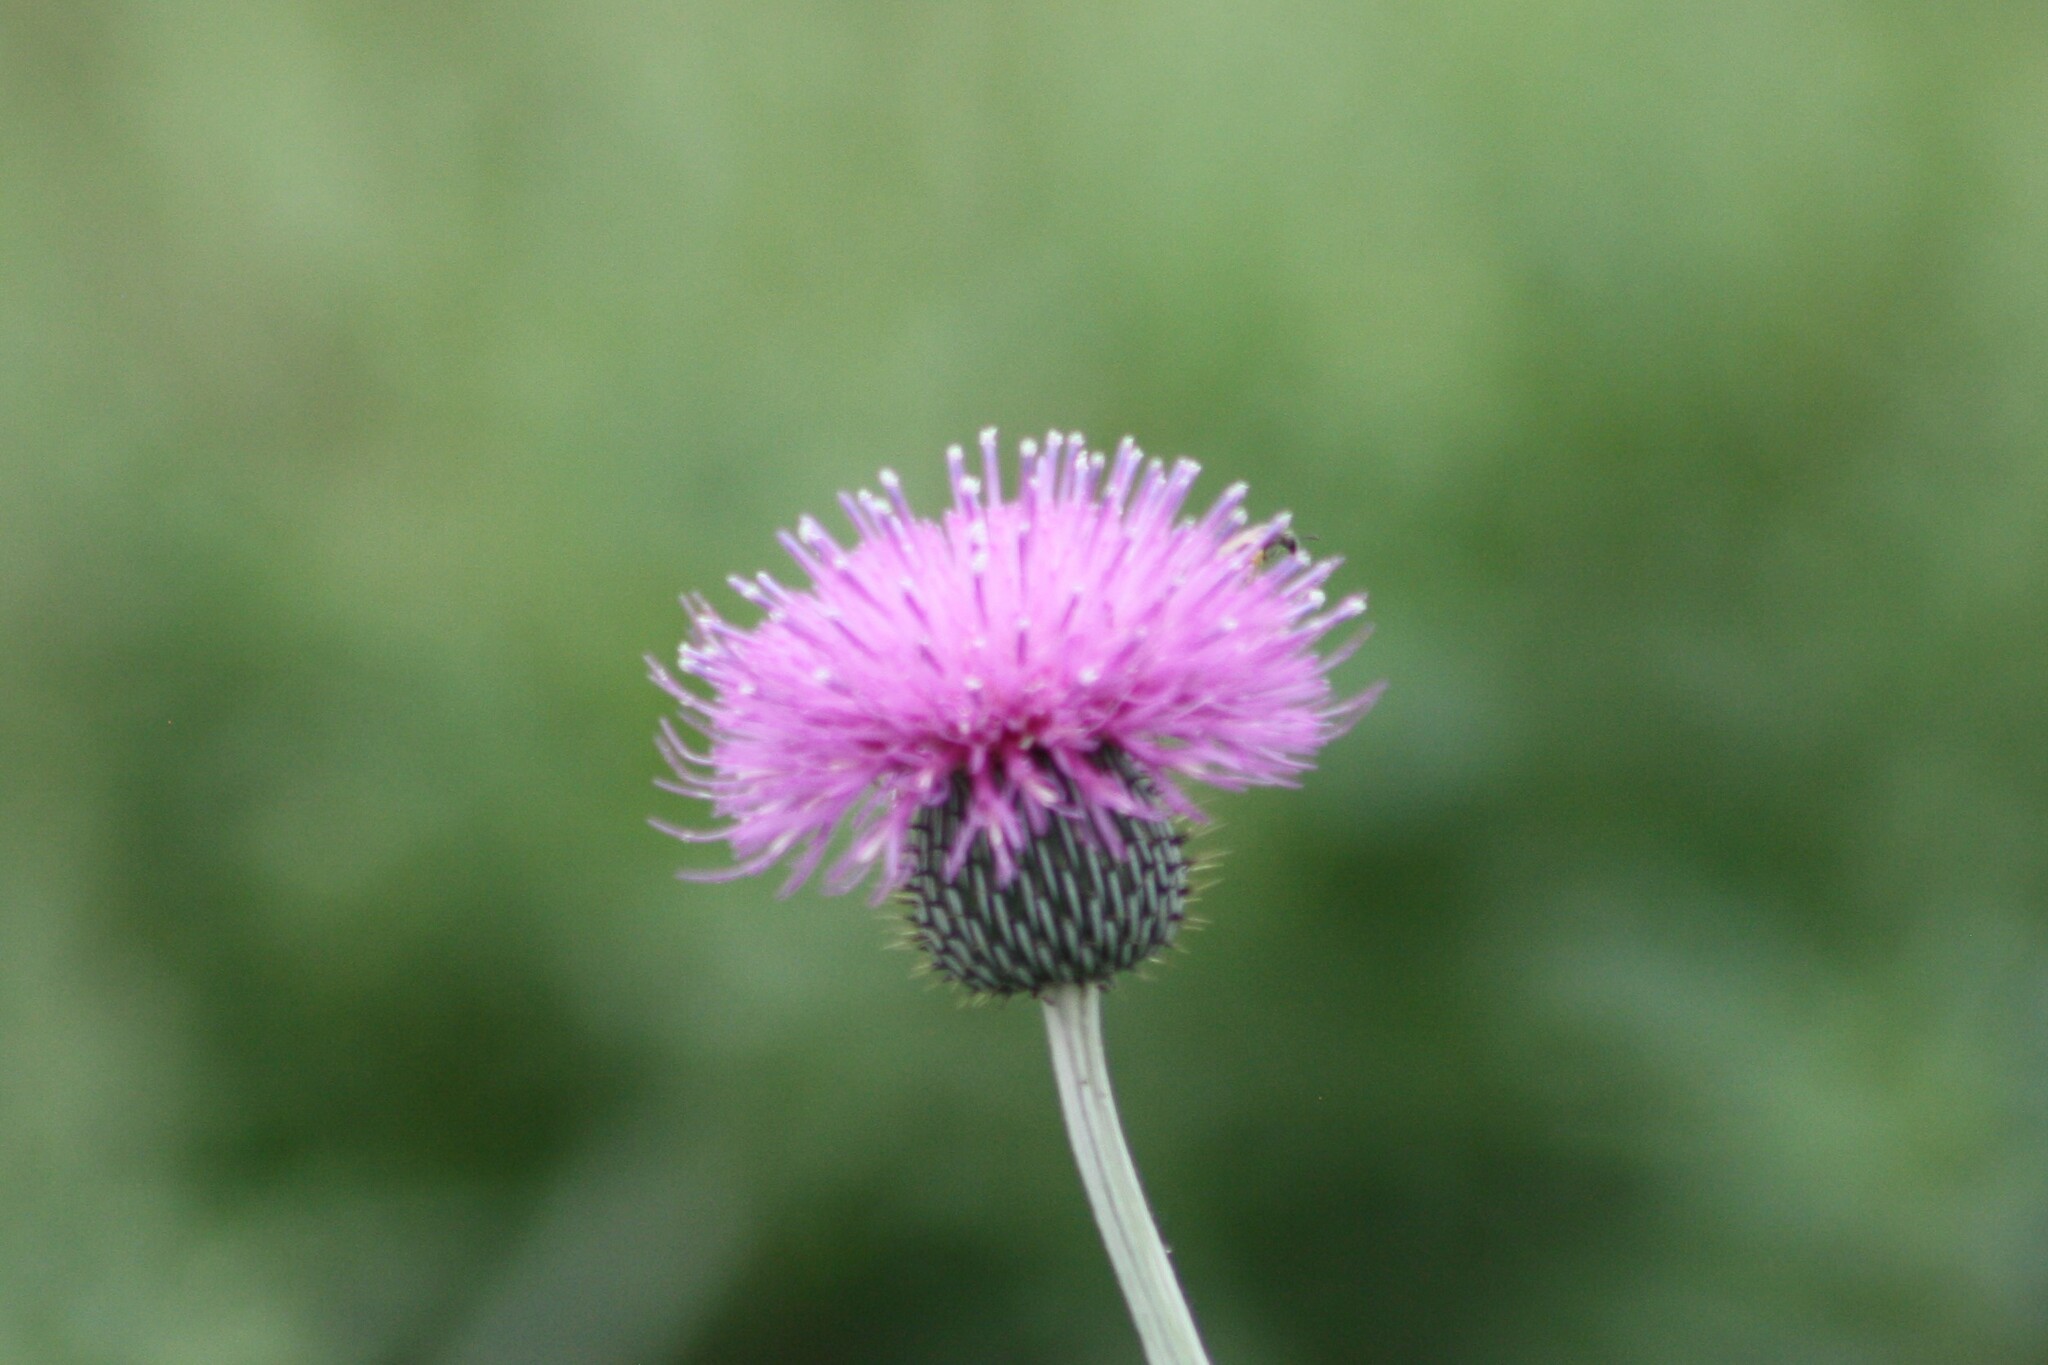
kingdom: Plantae
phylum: Tracheophyta
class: Magnoliopsida
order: Asterales
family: Asteraceae
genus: Cirsium
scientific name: Cirsium texanum
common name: Texas purple thistle
